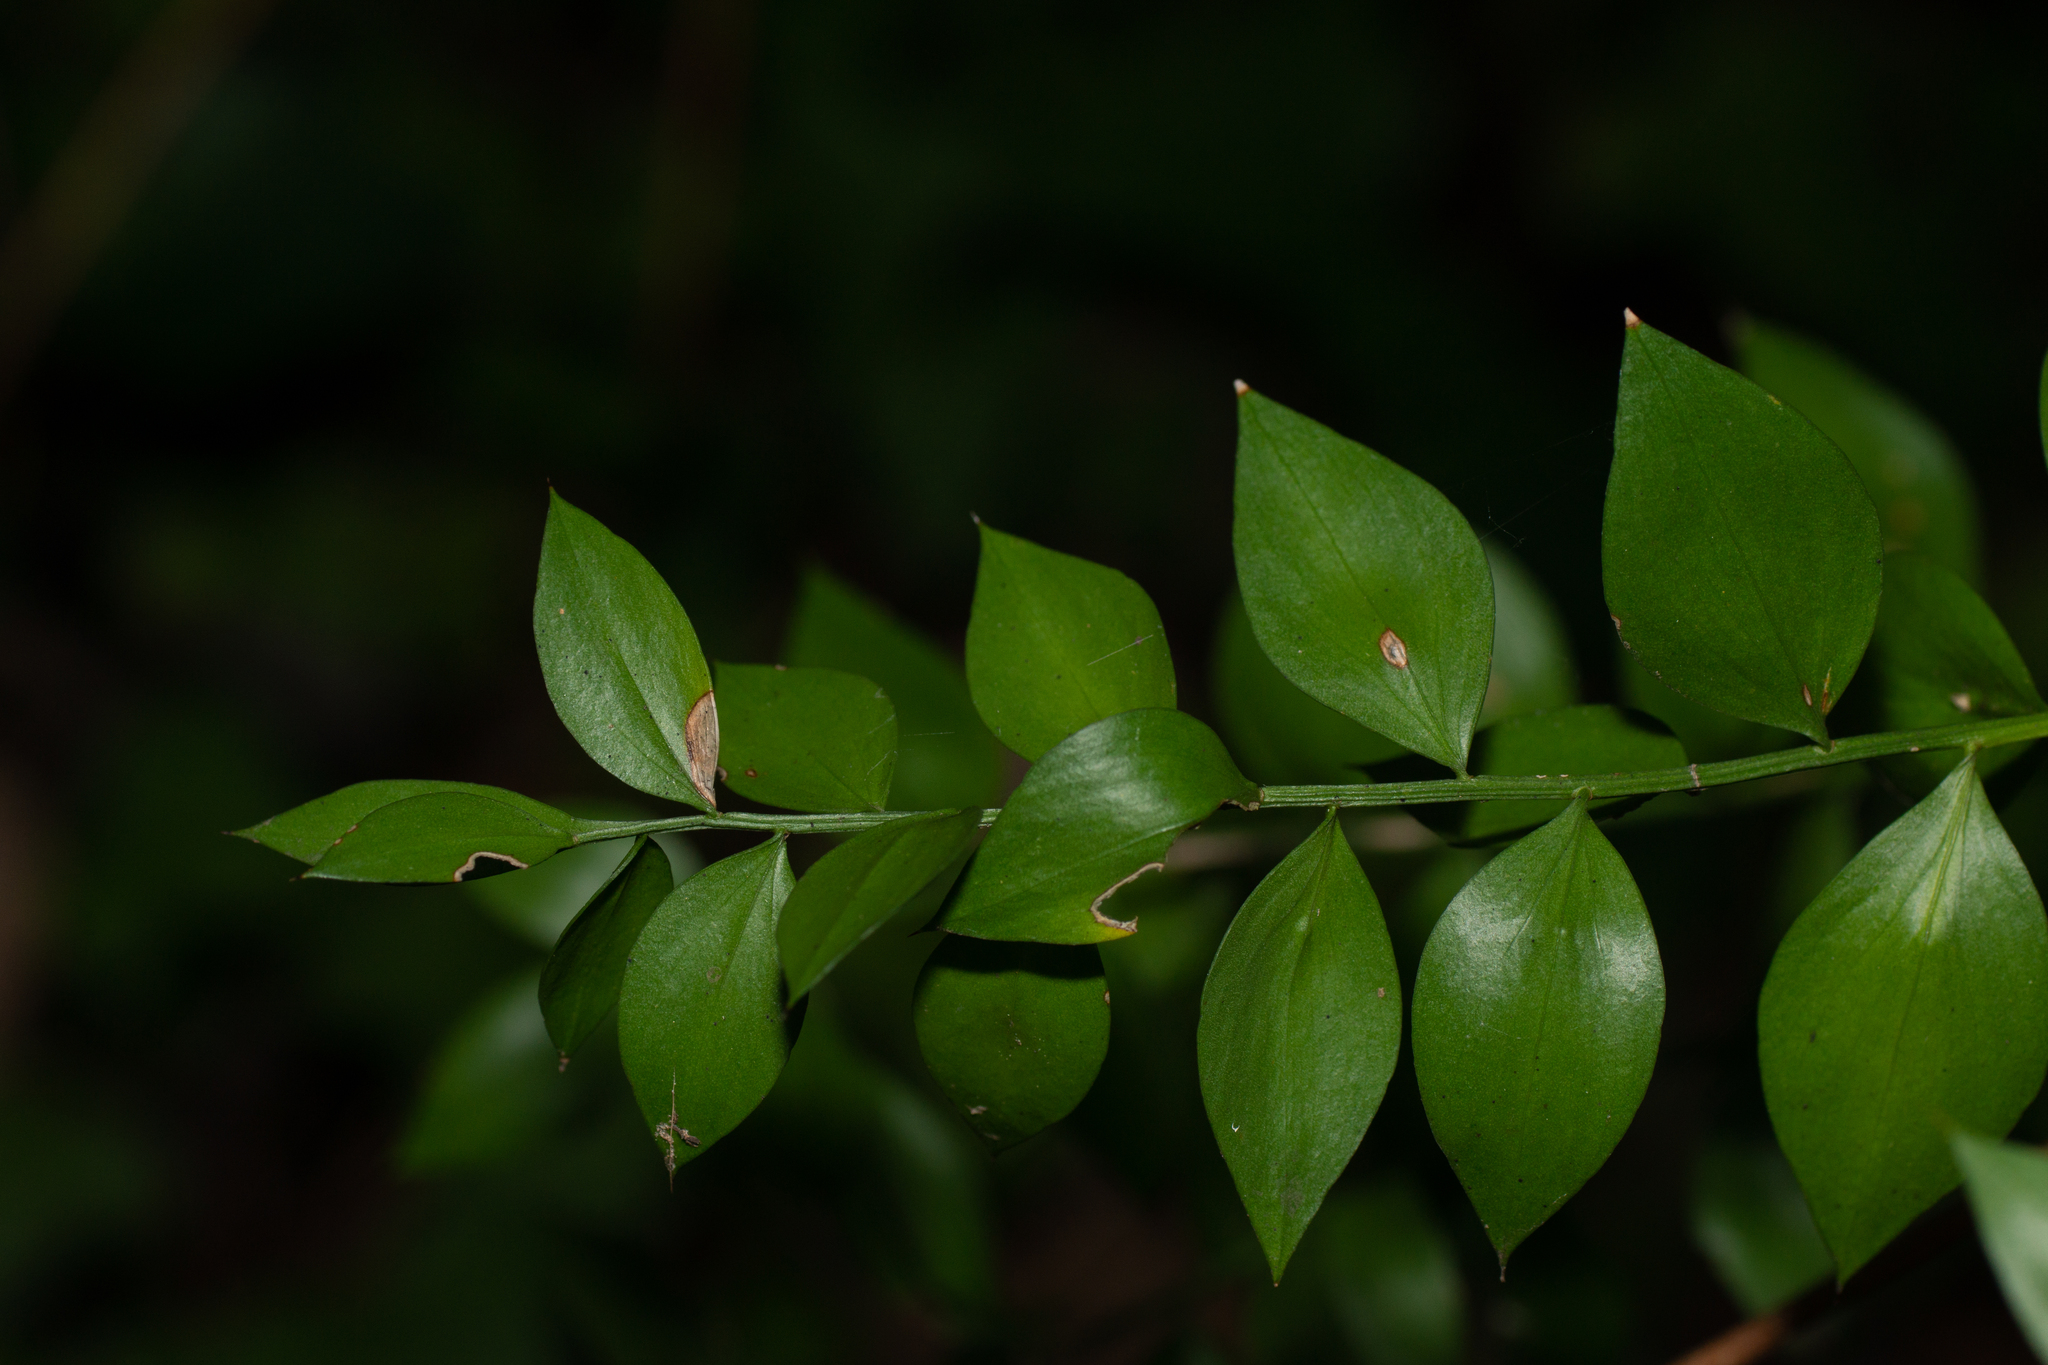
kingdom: Plantae
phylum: Tracheophyta
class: Liliopsida
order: Asparagales
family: Asparagaceae
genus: Ruscus
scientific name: Ruscus aculeatus
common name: Butcher's-broom
